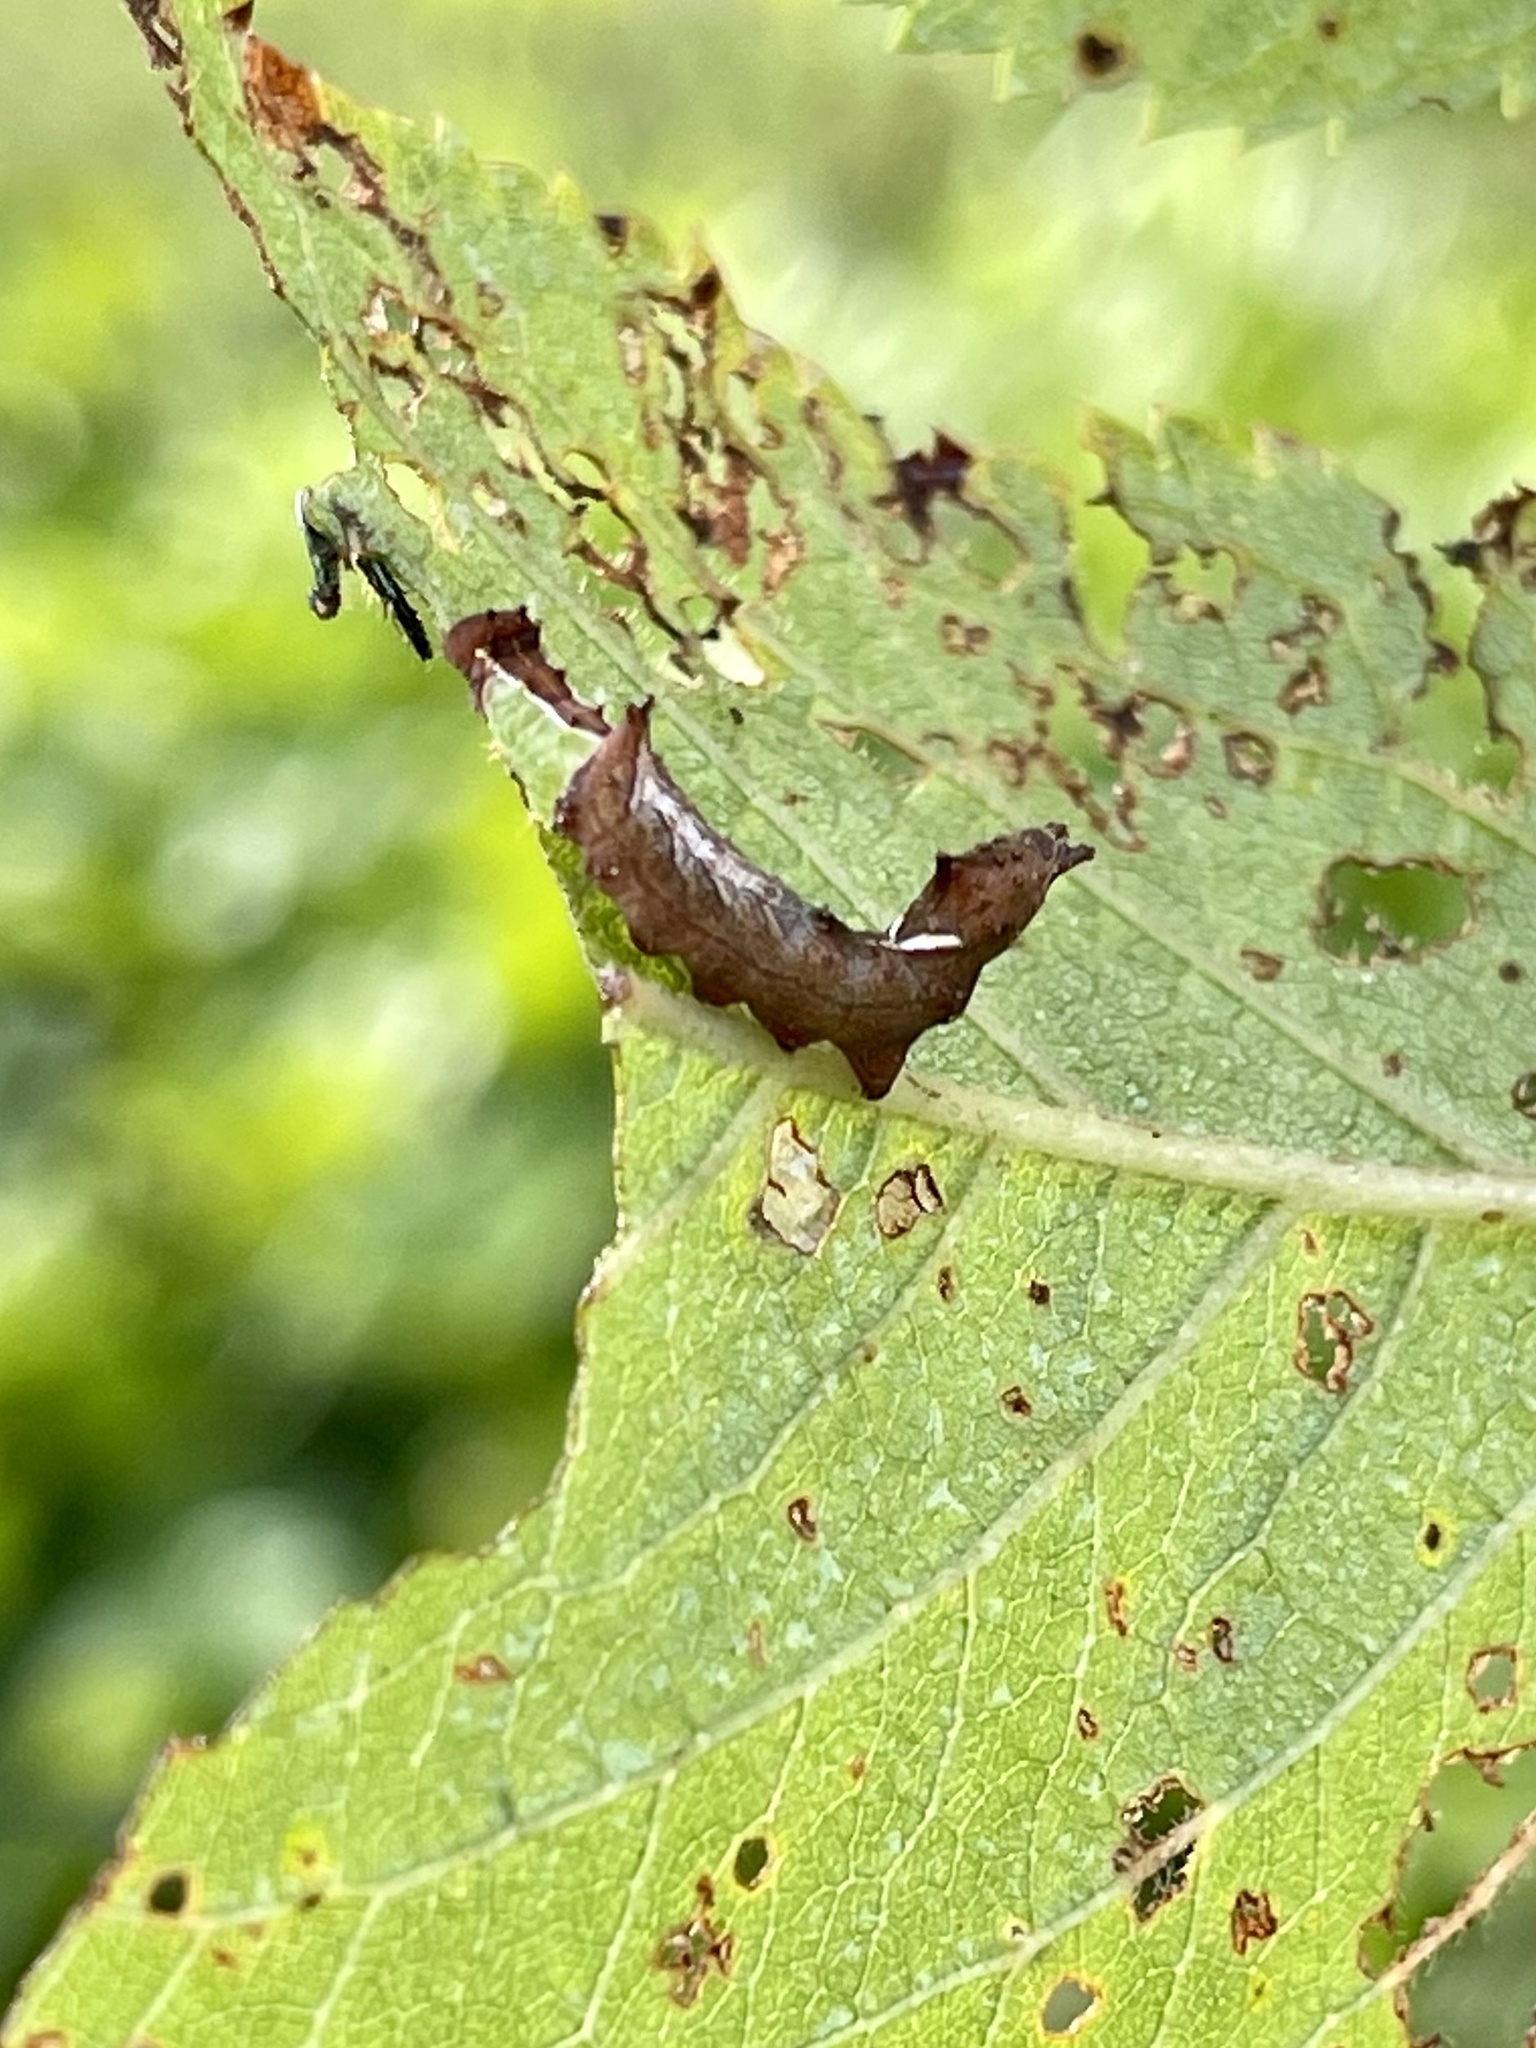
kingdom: Animalia
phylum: Arthropoda
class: Insecta
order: Lepidoptera
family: Notodontidae
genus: Schizura
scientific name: Schizura
